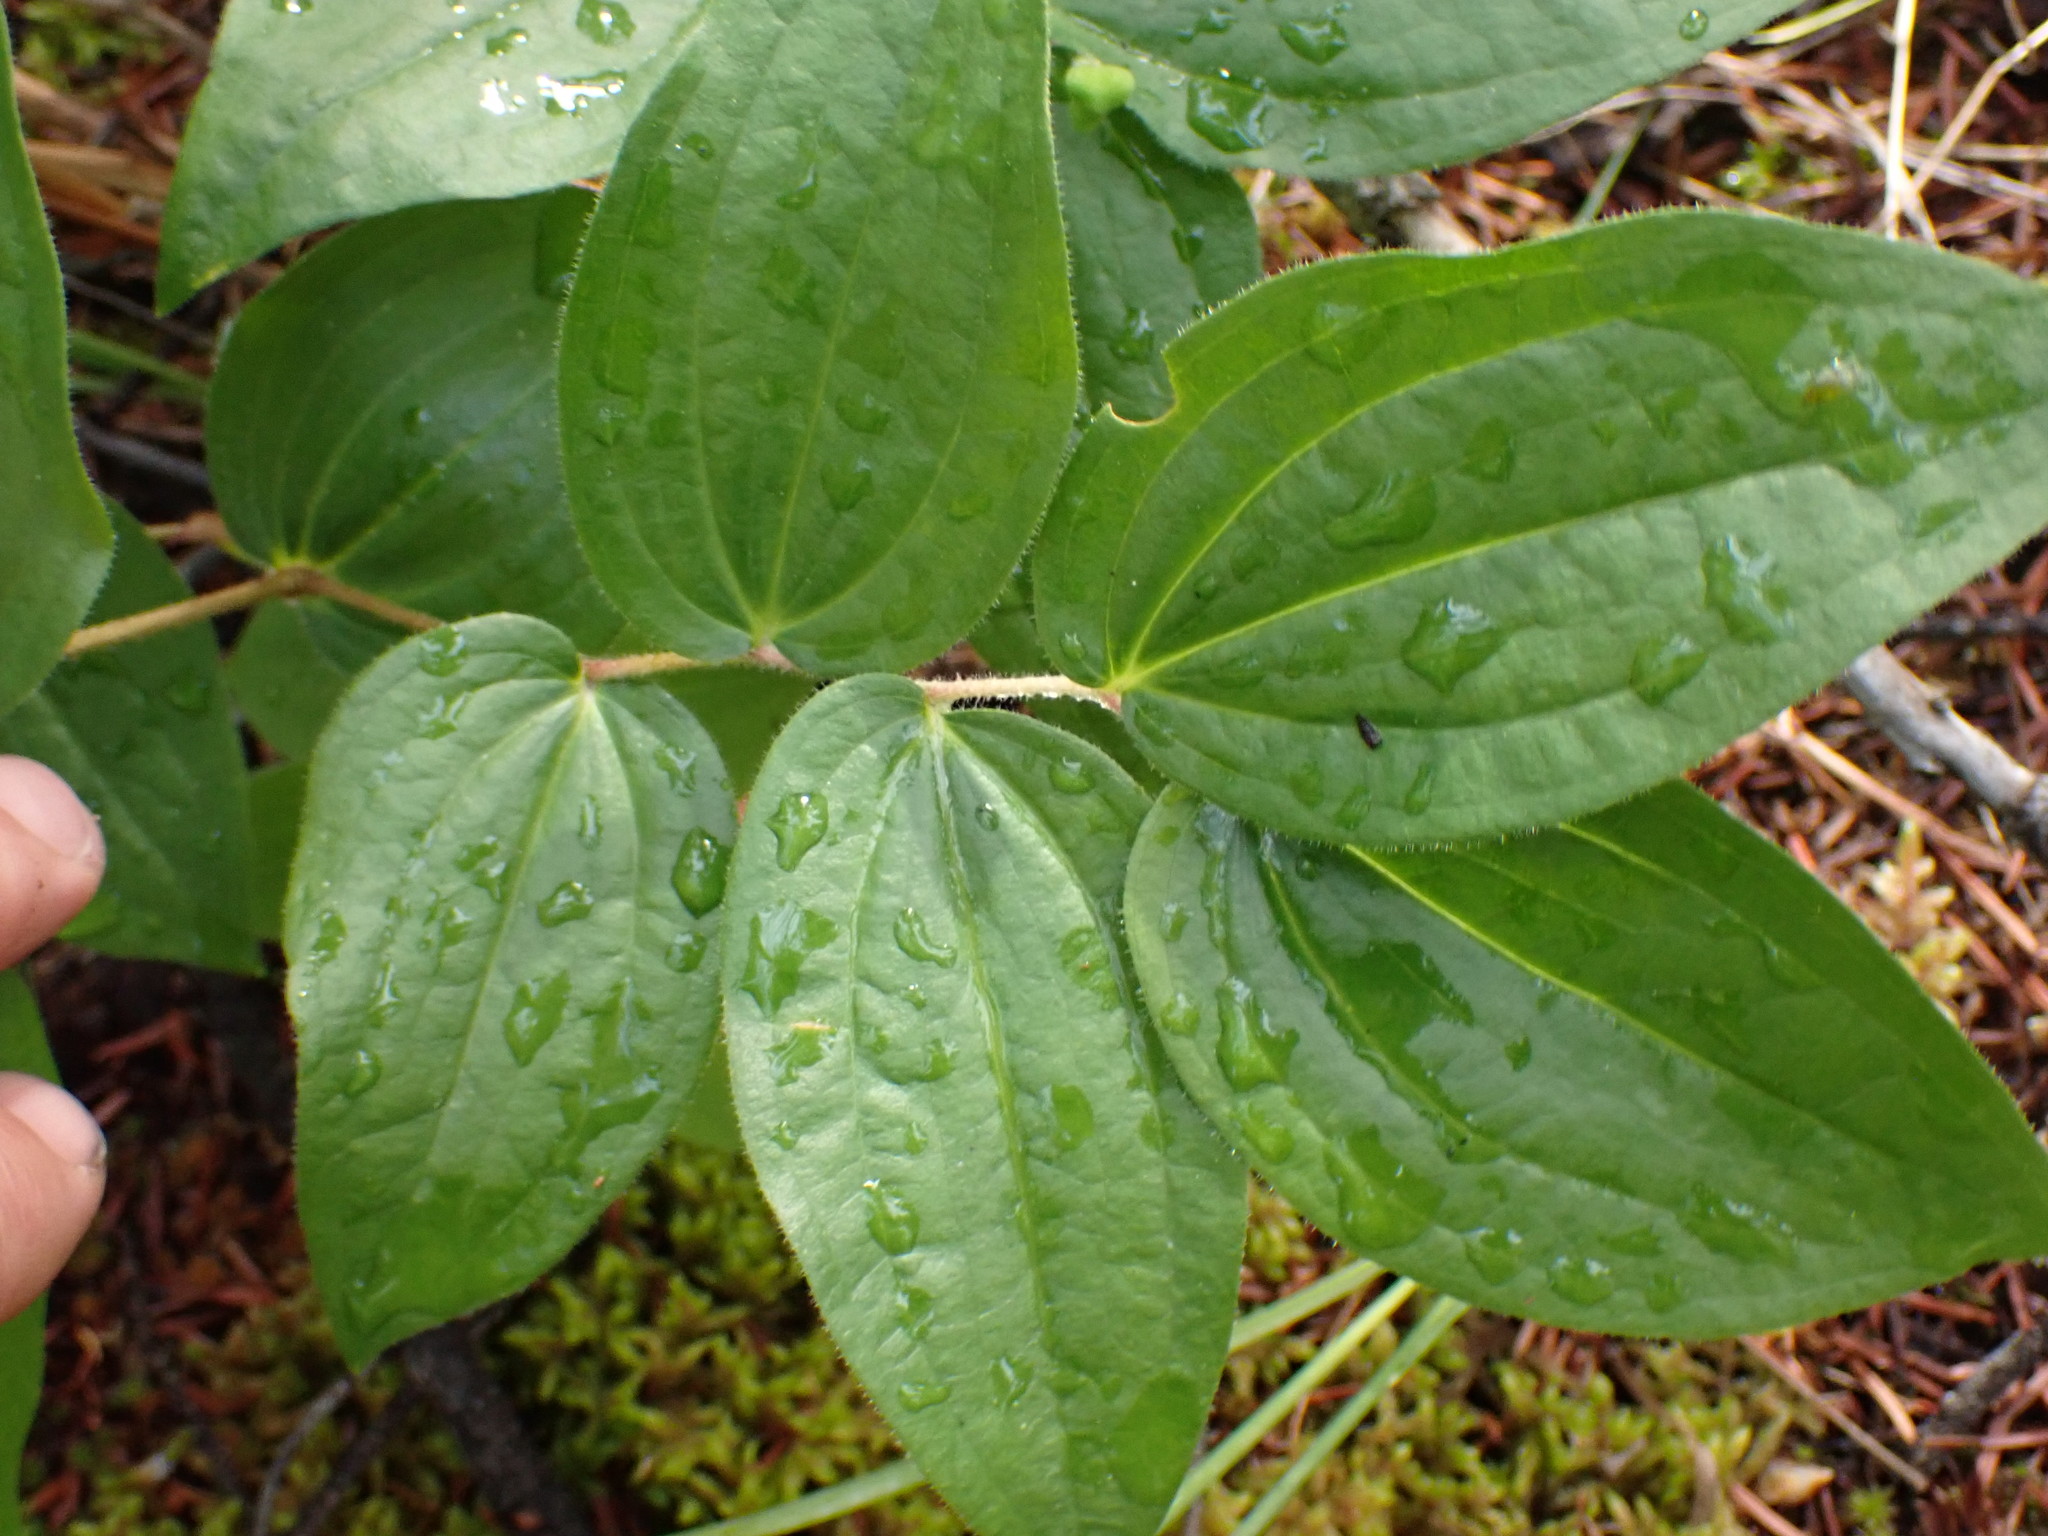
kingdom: Plantae
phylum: Tracheophyta
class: Liliopsida
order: Liliales
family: Liliaceae
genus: Prosartes
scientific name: Prosartes trachycarpa
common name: Rough-fruit fairy-bells
